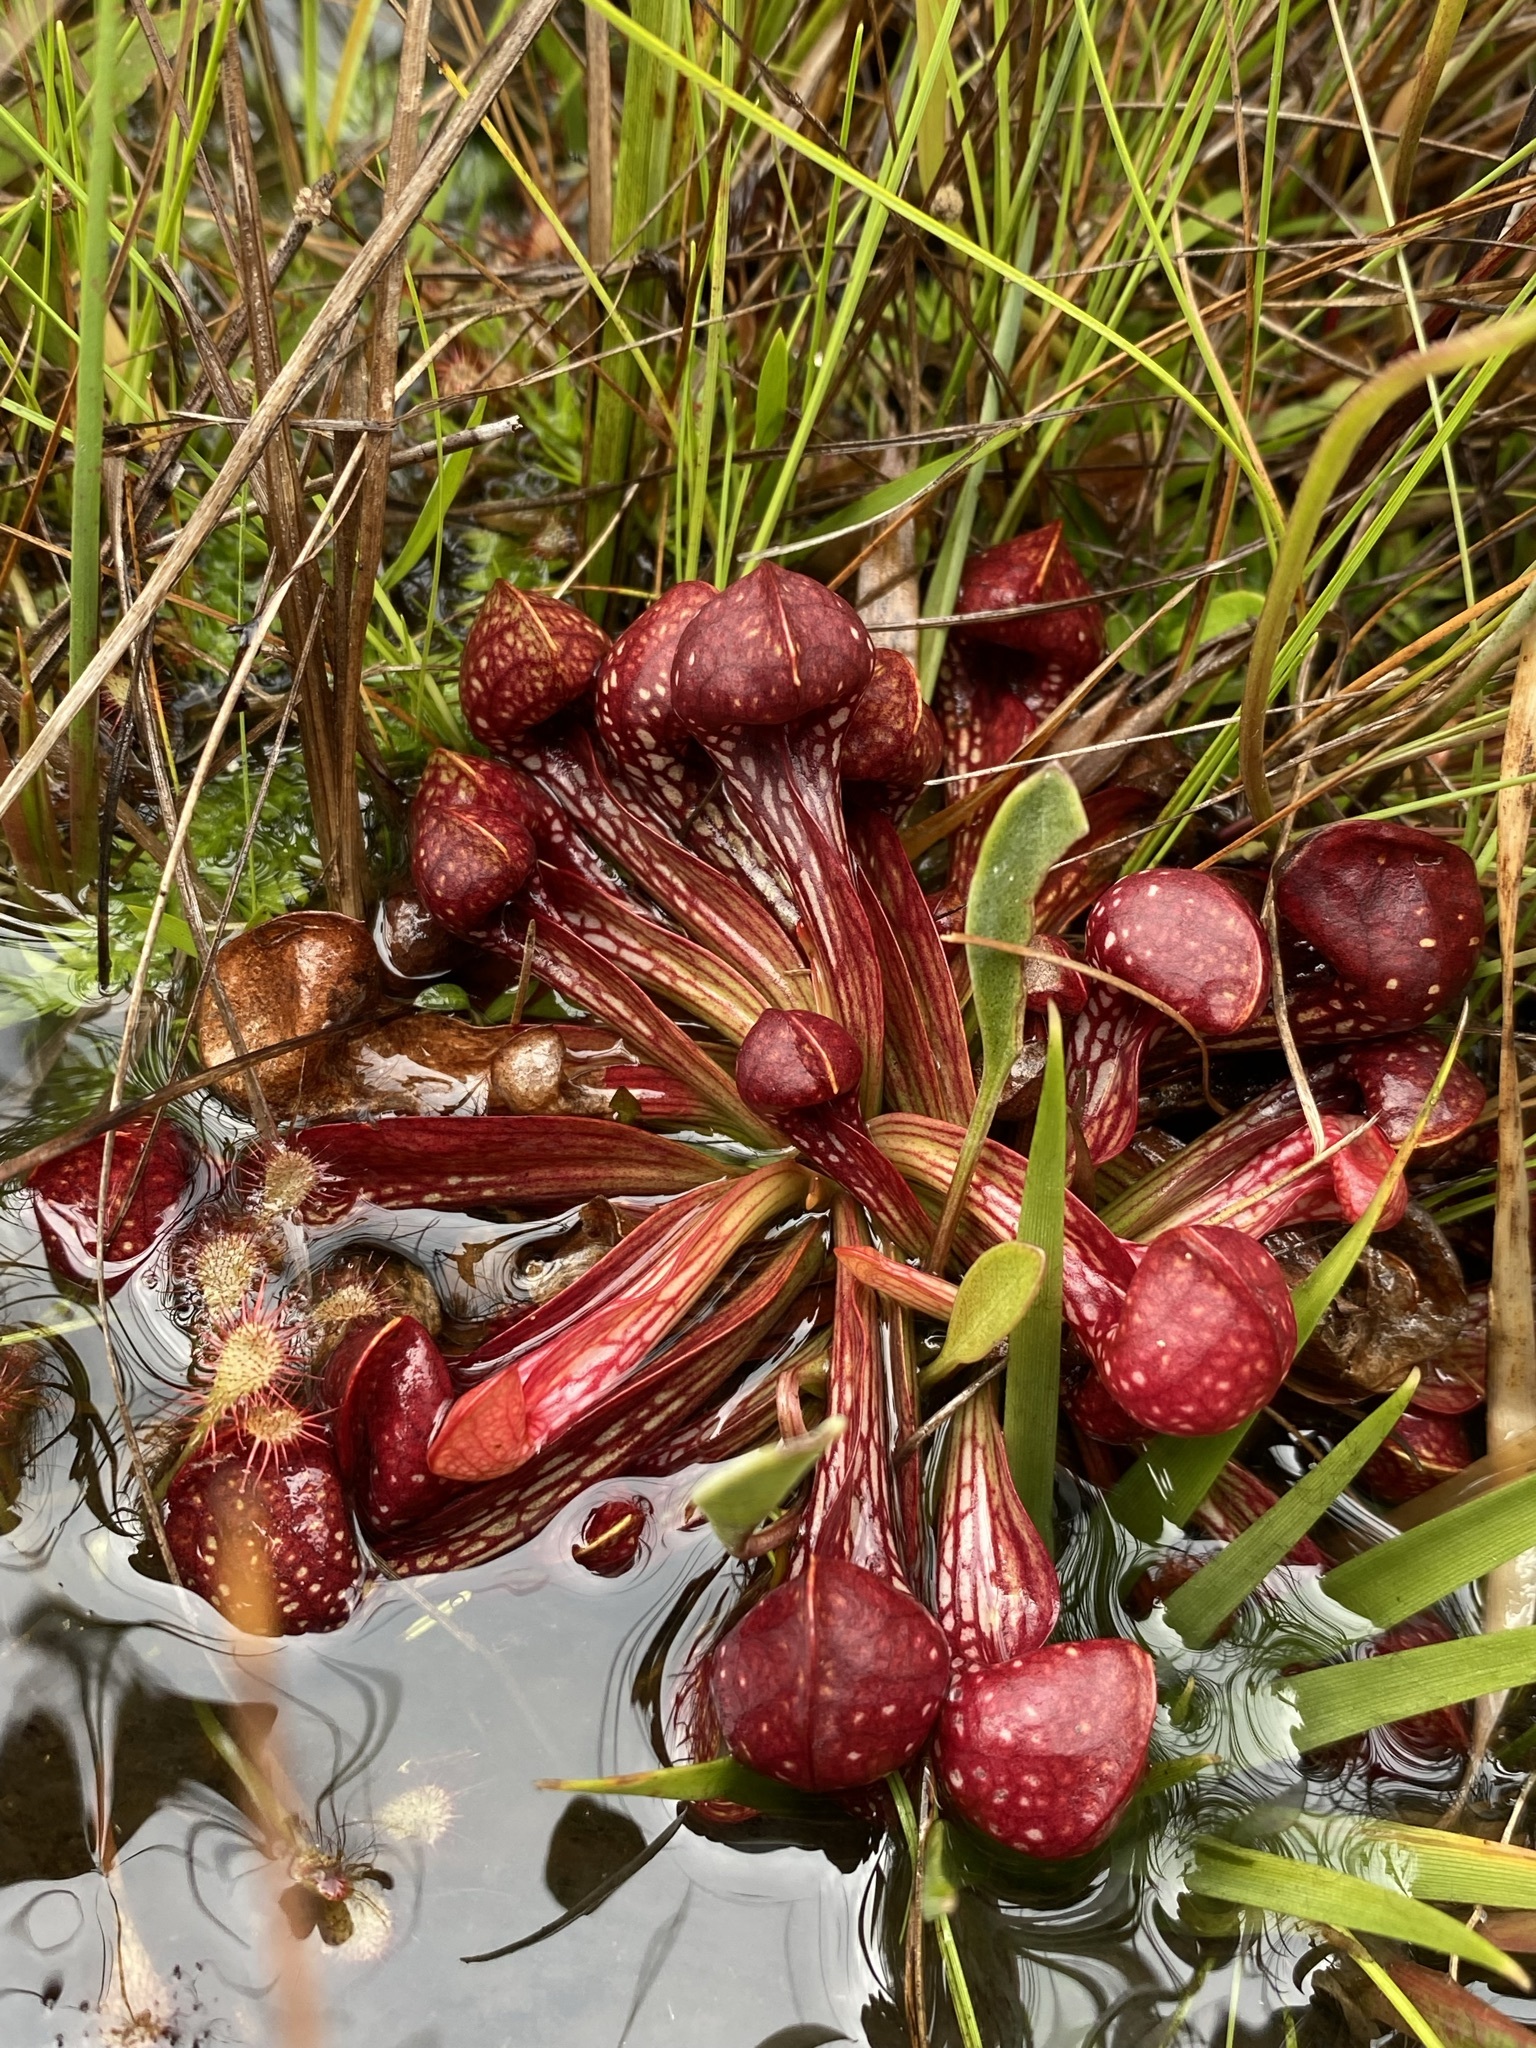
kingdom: Plantae
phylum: Tracheophyta
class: Magnoliopsida
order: Ericales
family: Sarraceniaceae
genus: Sarracenia
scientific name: Sarracenia psittacina
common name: Parrot pitcherplant
